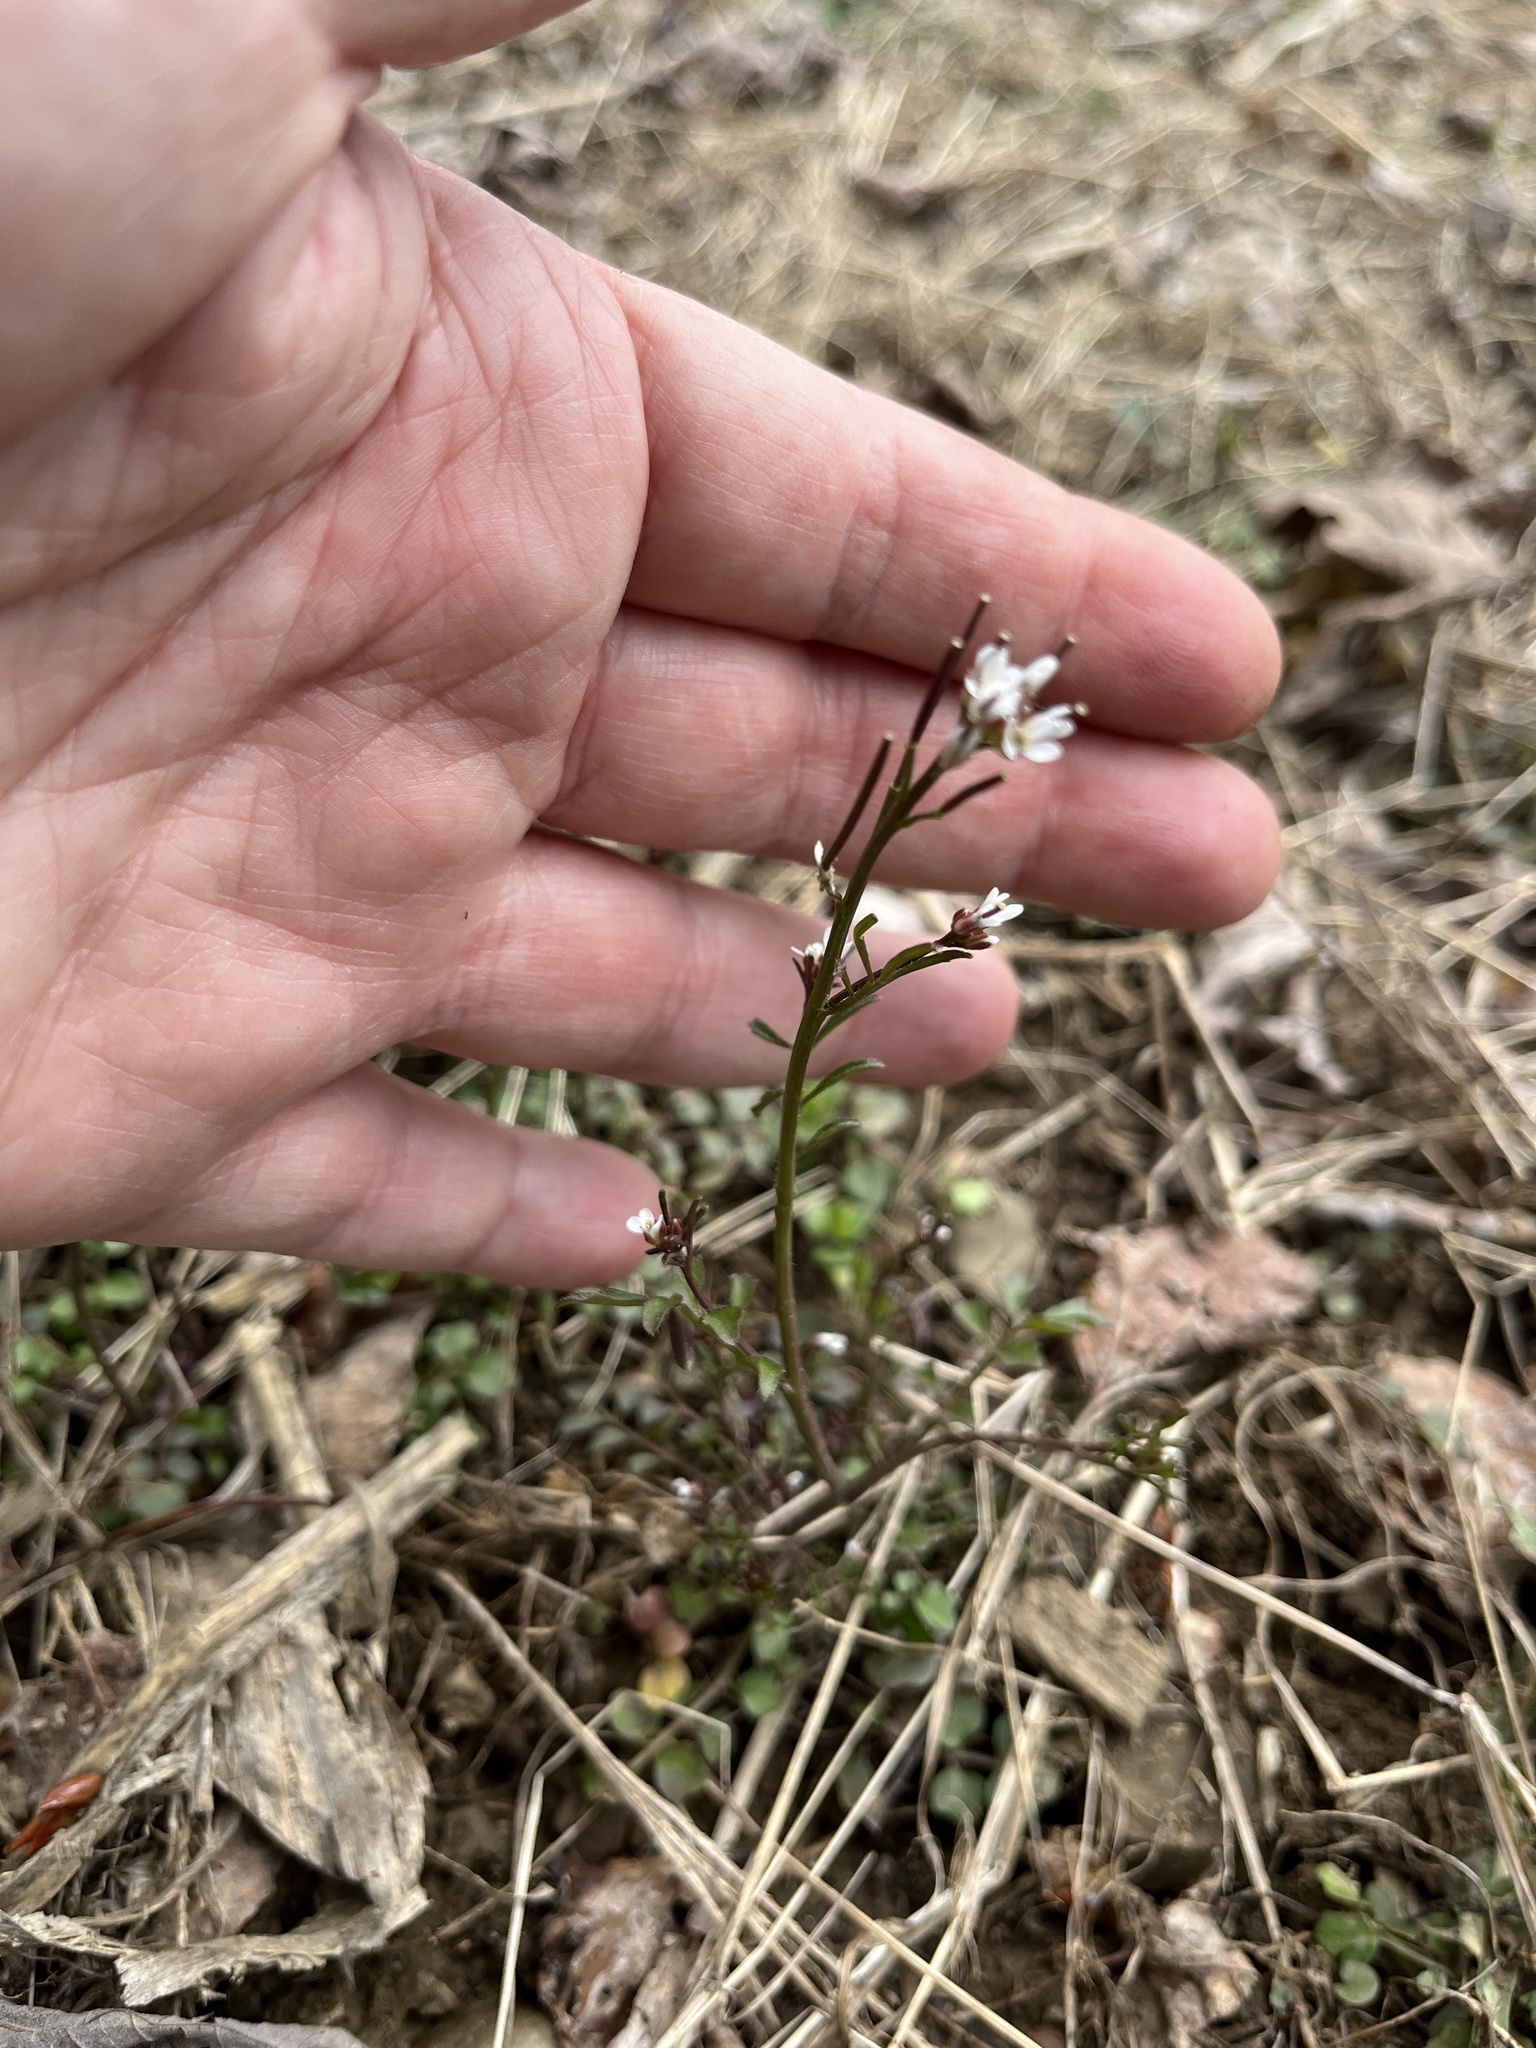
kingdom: Plantae
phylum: Tracheophyta
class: Magnoliopsida
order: Brassicales
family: Brassicaceae
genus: Cardamine
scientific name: Cardamine hirsuta
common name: Hairy bittercress
